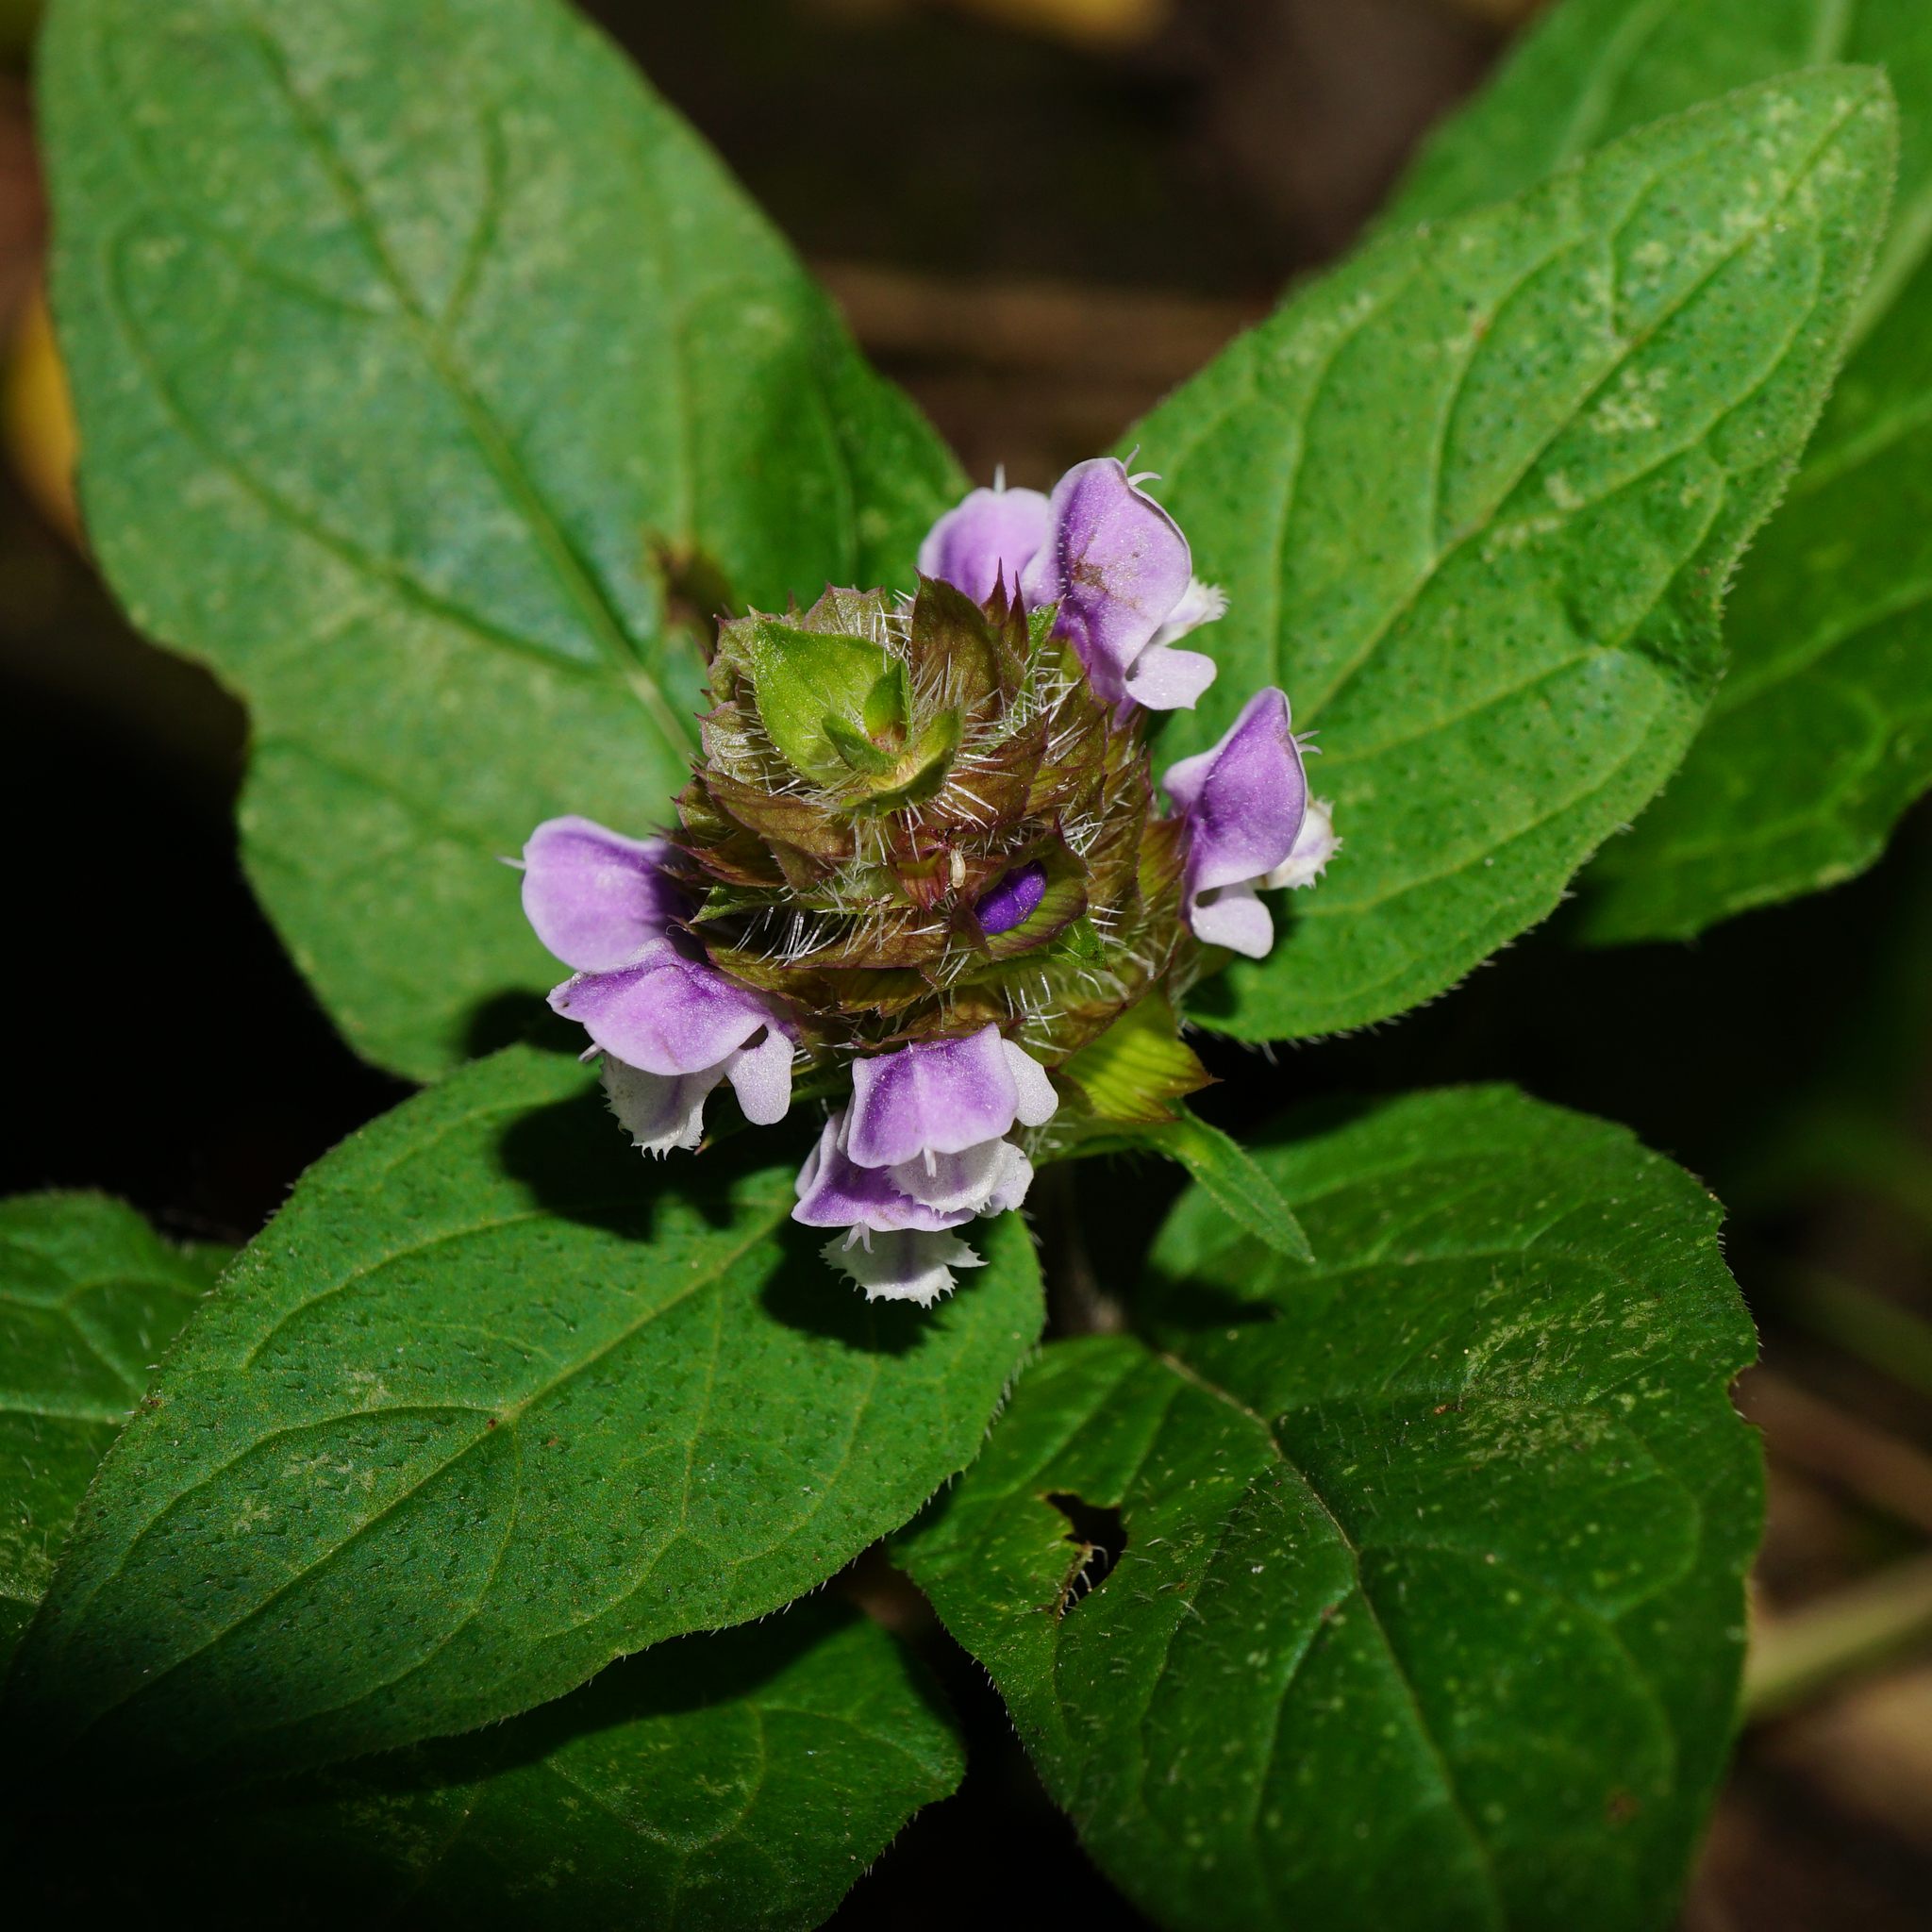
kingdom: Plantae
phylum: Tracheophyta
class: Magnoliopsida
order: Lamiales
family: Lamiaceae
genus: Prunella
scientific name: Prunella vulgaris
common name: Heal-all
